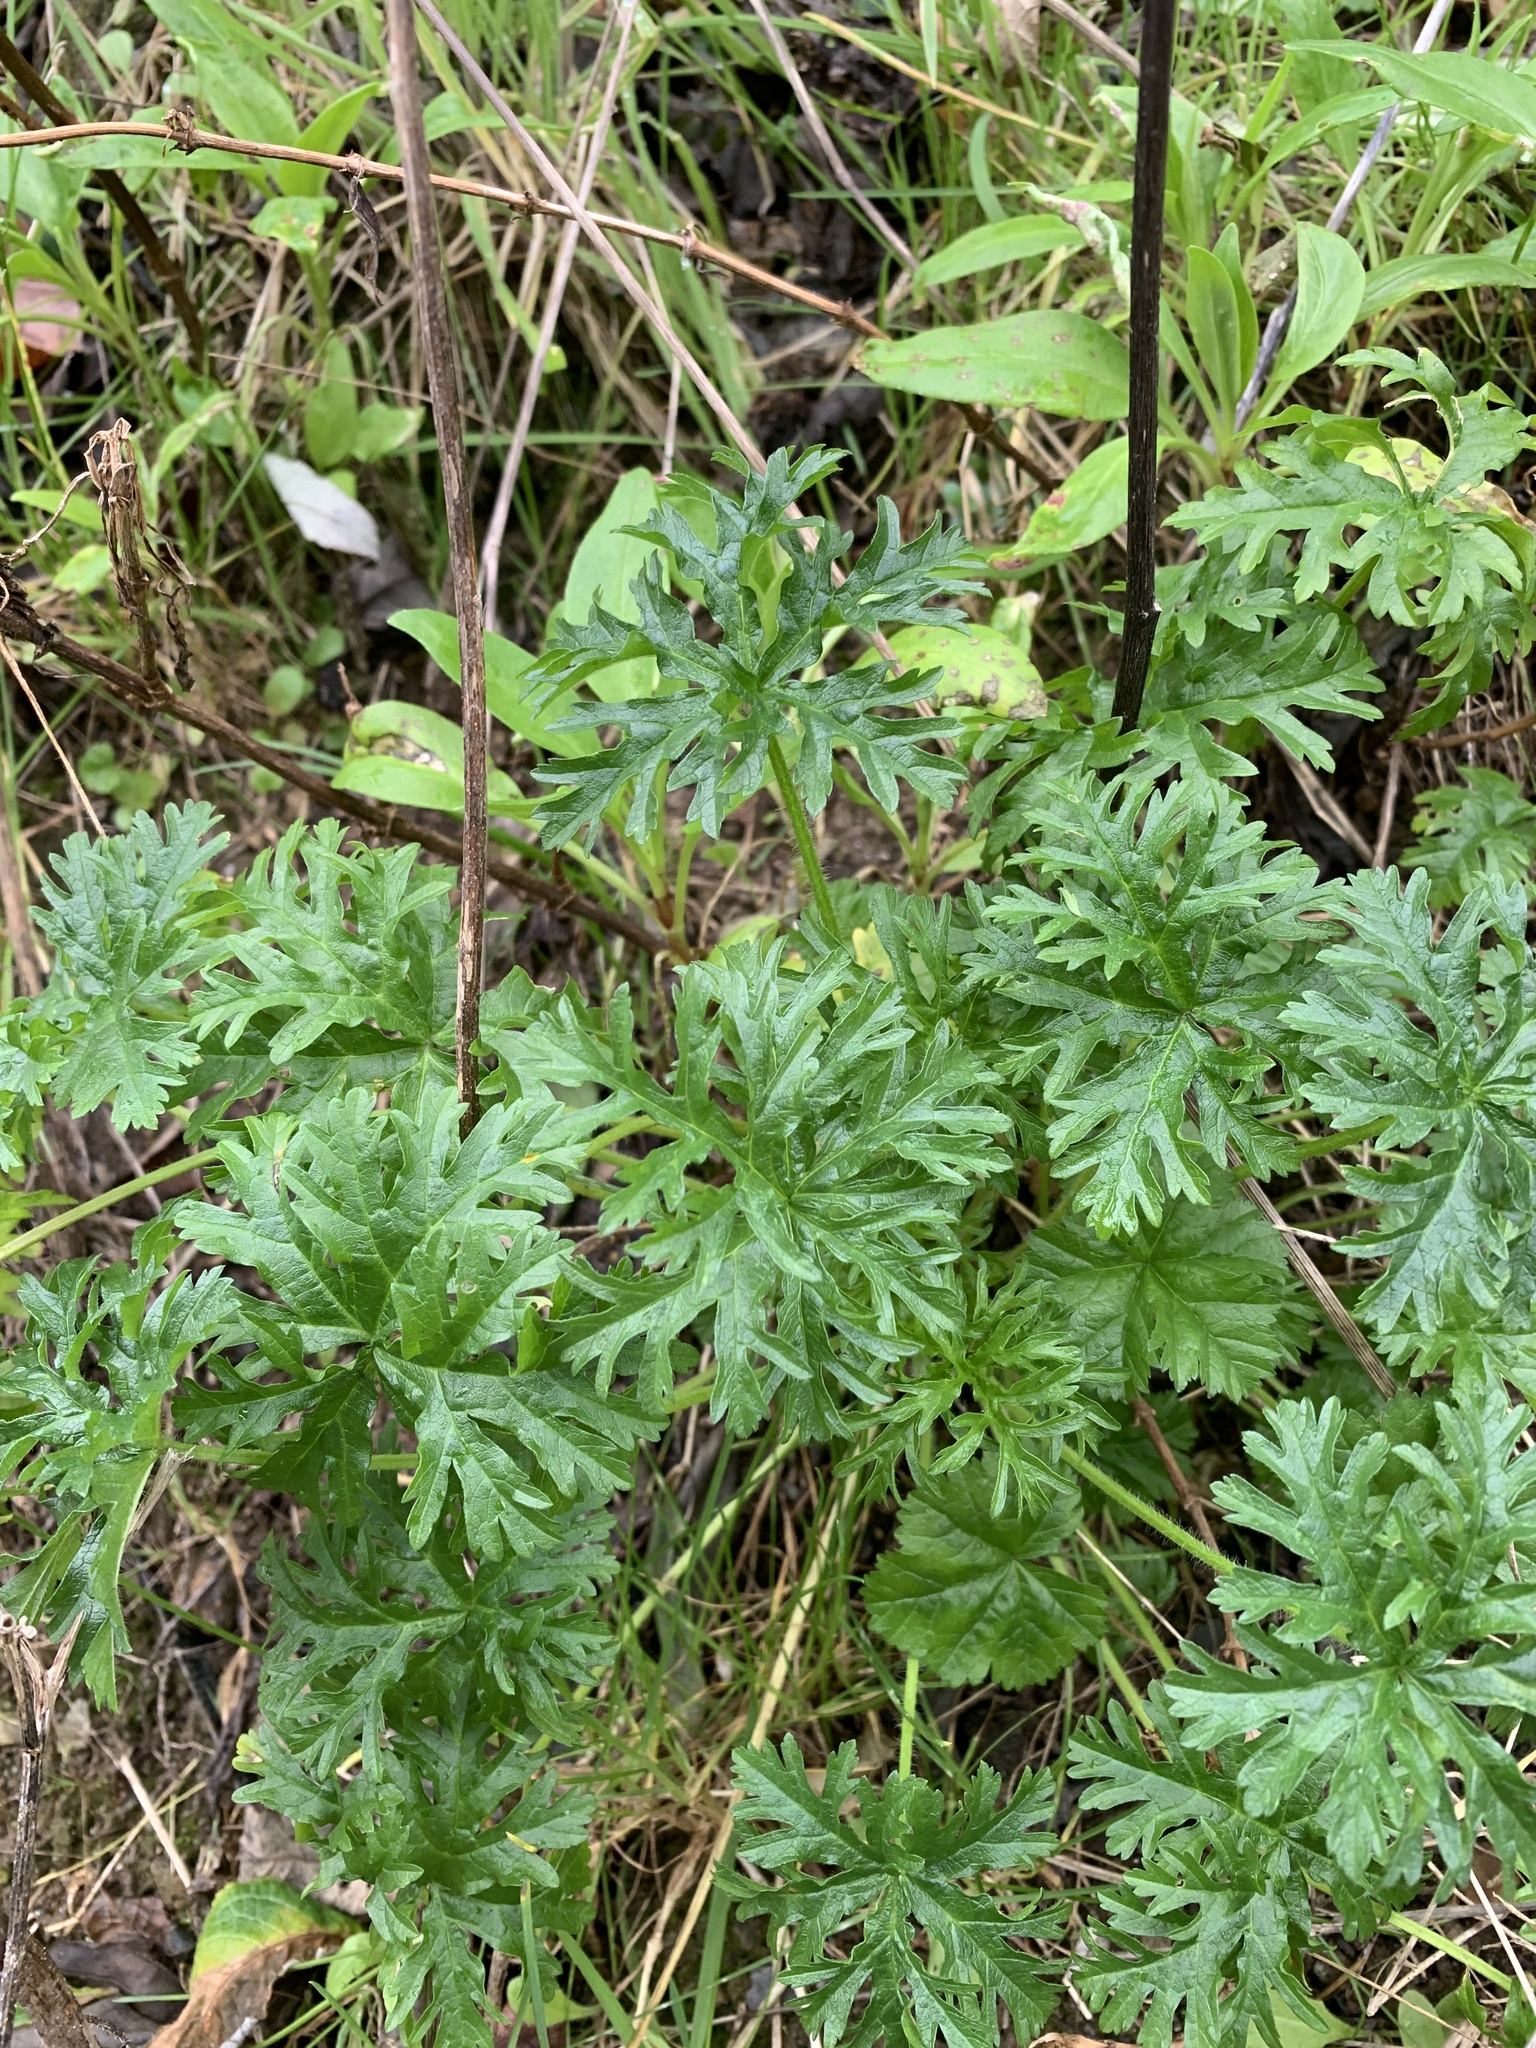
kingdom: Plantae
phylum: Tracheophyta
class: Magnoliopsida
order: Geraniales
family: Geraniaceae
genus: Geranium
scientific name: Geranium dissectum
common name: Cut-leaved crane's-bill
